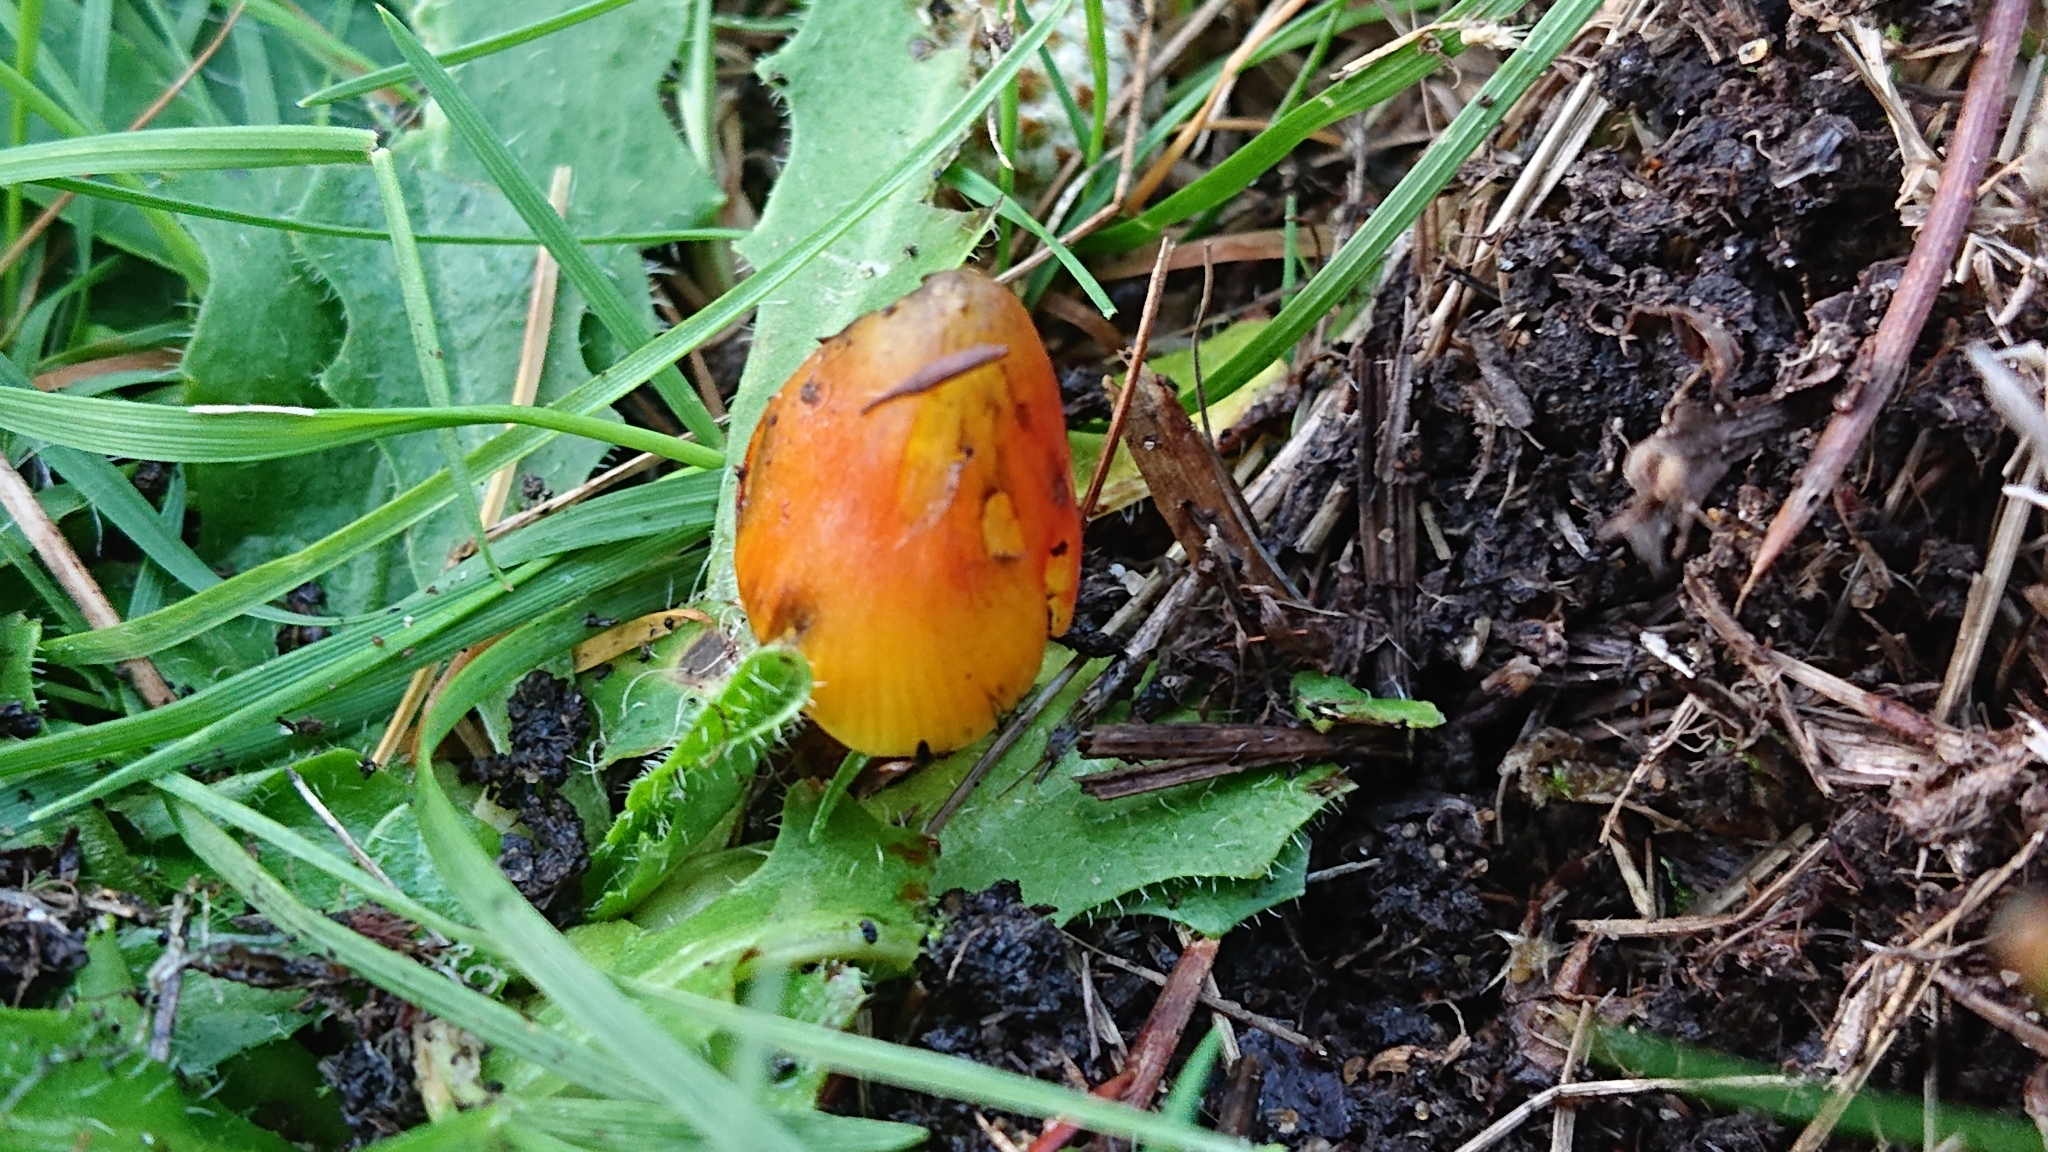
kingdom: Fungi
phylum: Basidiomycota
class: Agaricomycetes
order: Agaricales
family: Hygrophoraceae
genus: Hygrocybe
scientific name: Hygrocybe conica
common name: Blackening wax-cap
